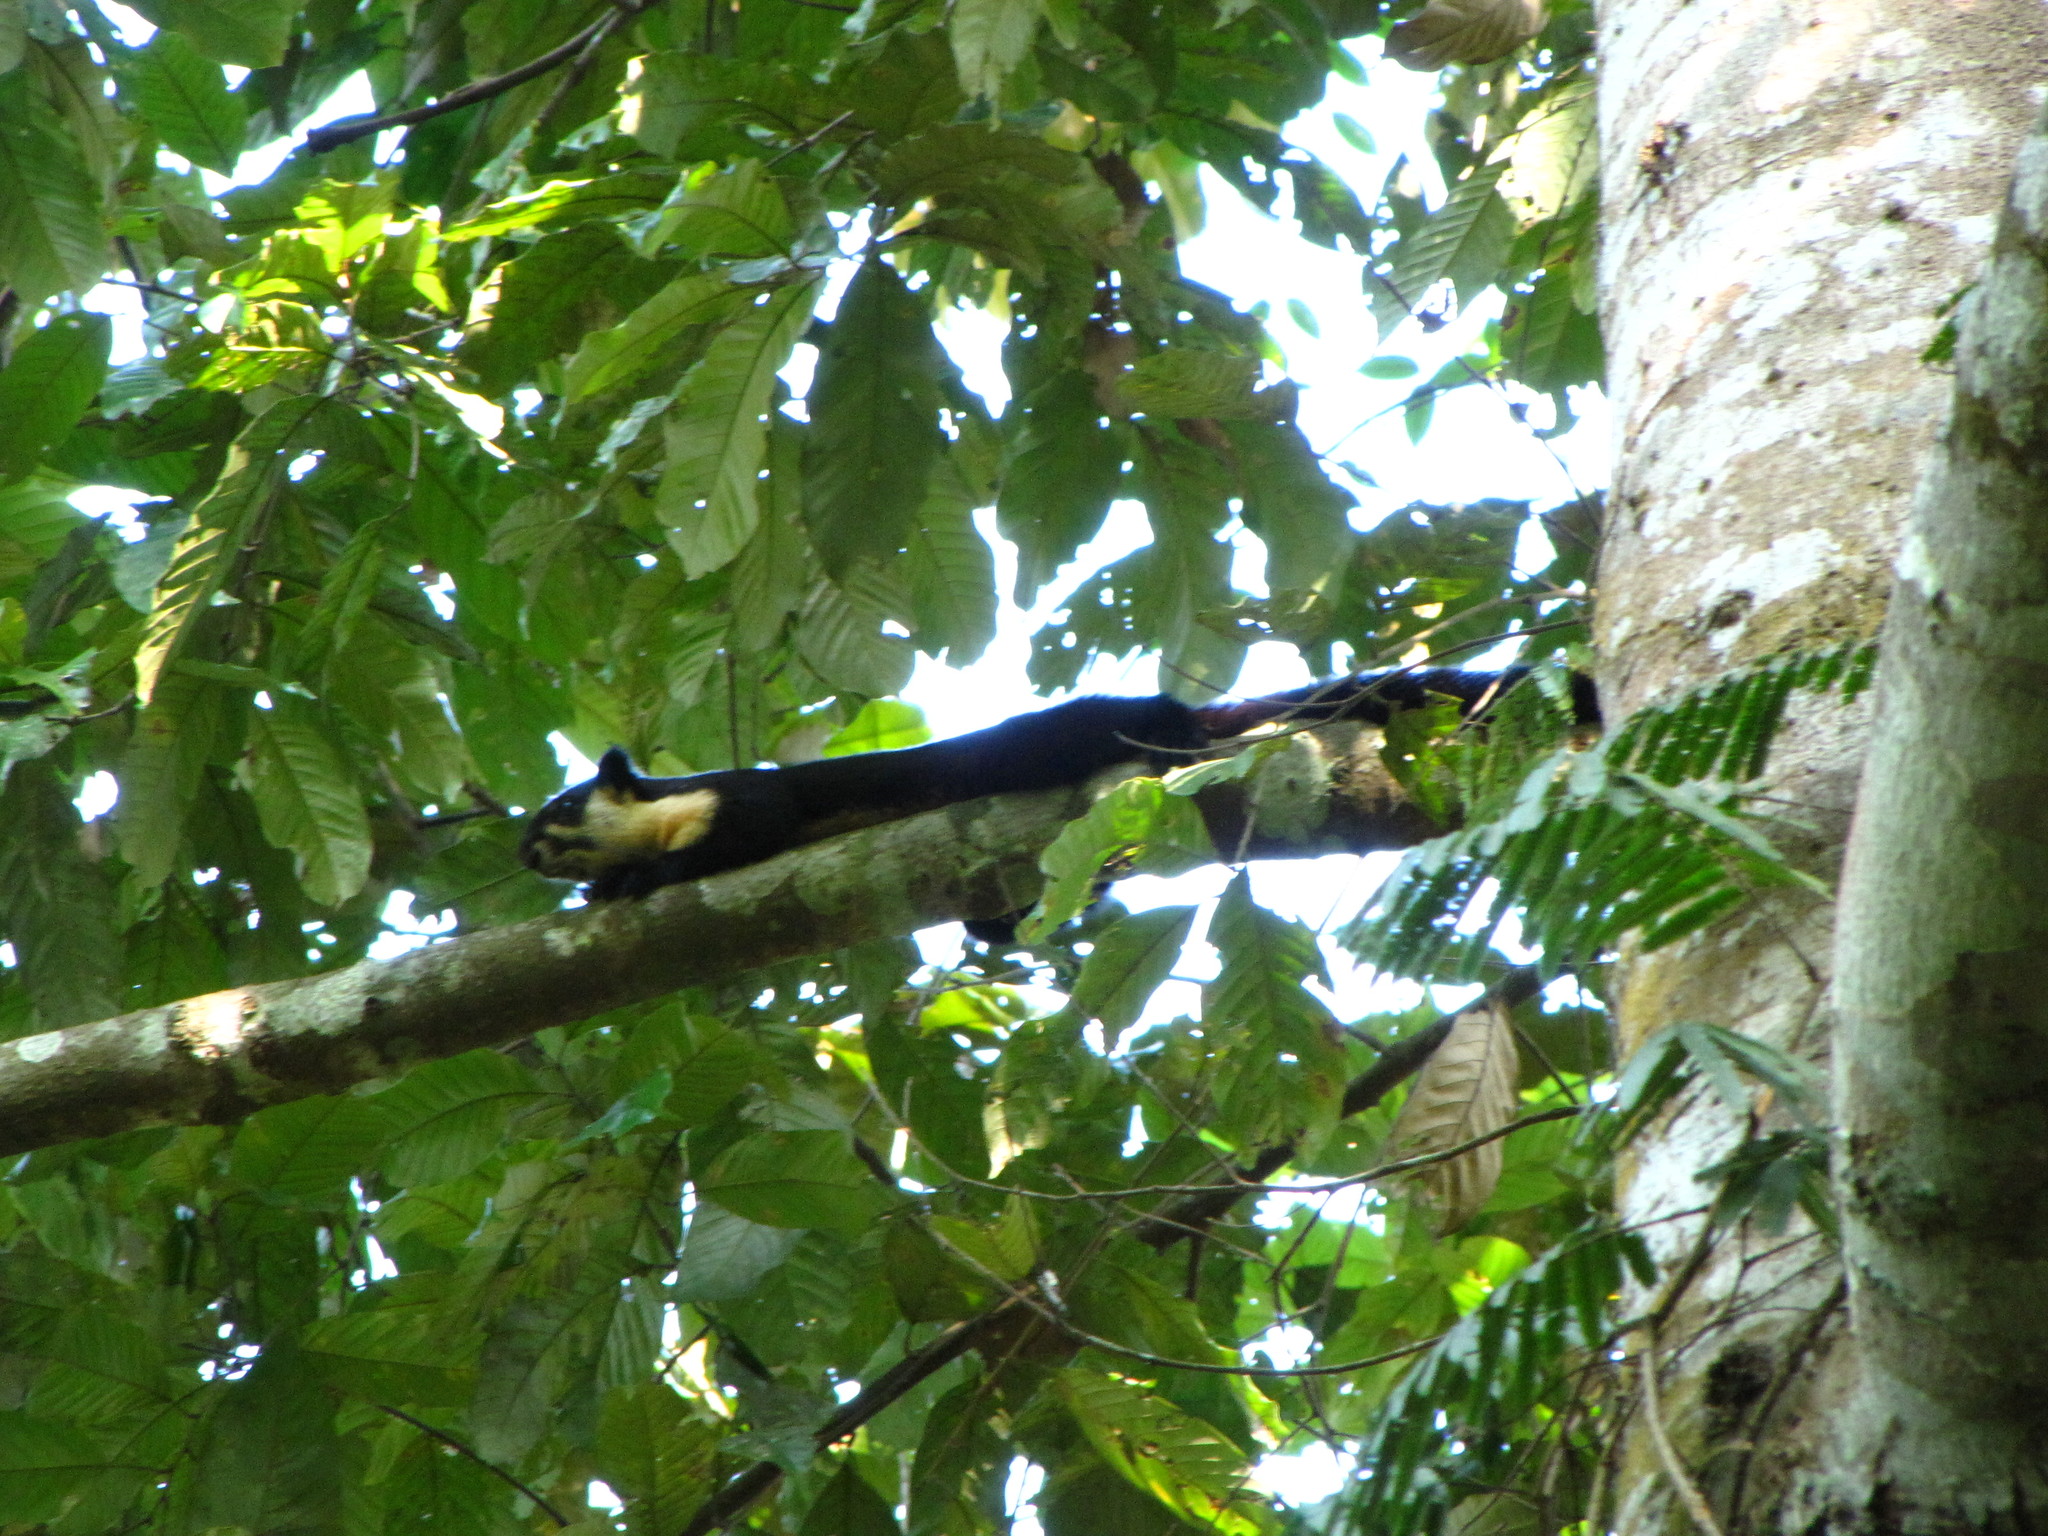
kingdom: Animalia
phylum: Chordata
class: Mammalia
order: Rodentia
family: Sciuridae
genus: Ratufa
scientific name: Ratufa bicolor
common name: Black giant squirrel
